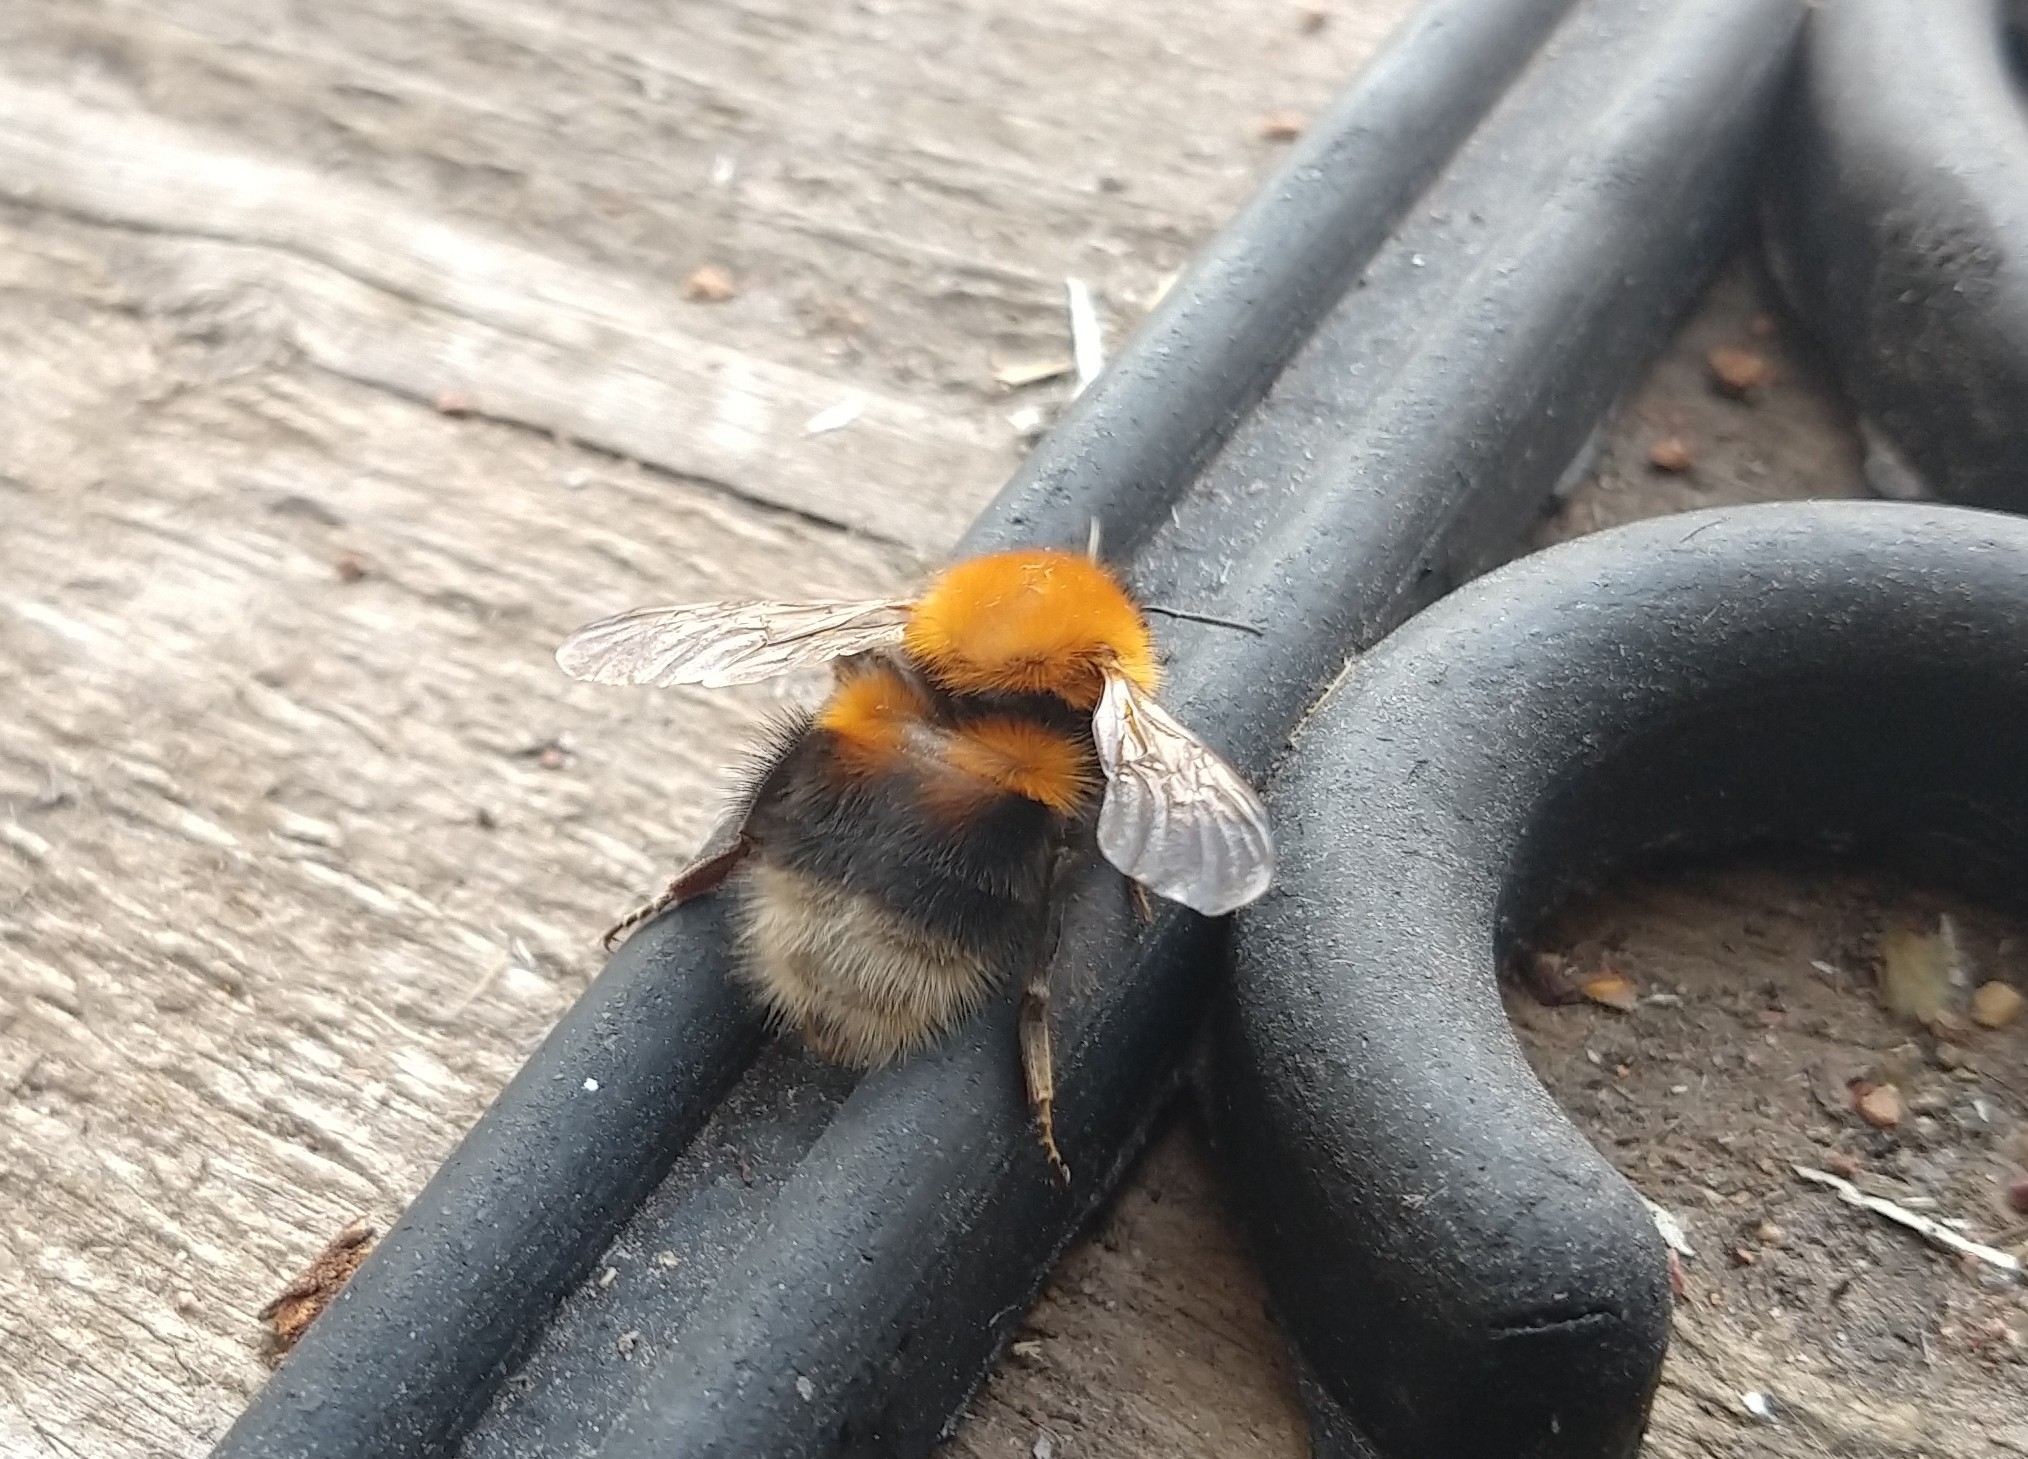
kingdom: Animalia
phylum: Arthropoda
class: Insecta
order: Hymenoptera
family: Apidae
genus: Bombus
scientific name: Bombus hypnorum
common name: New garden bumblebee
